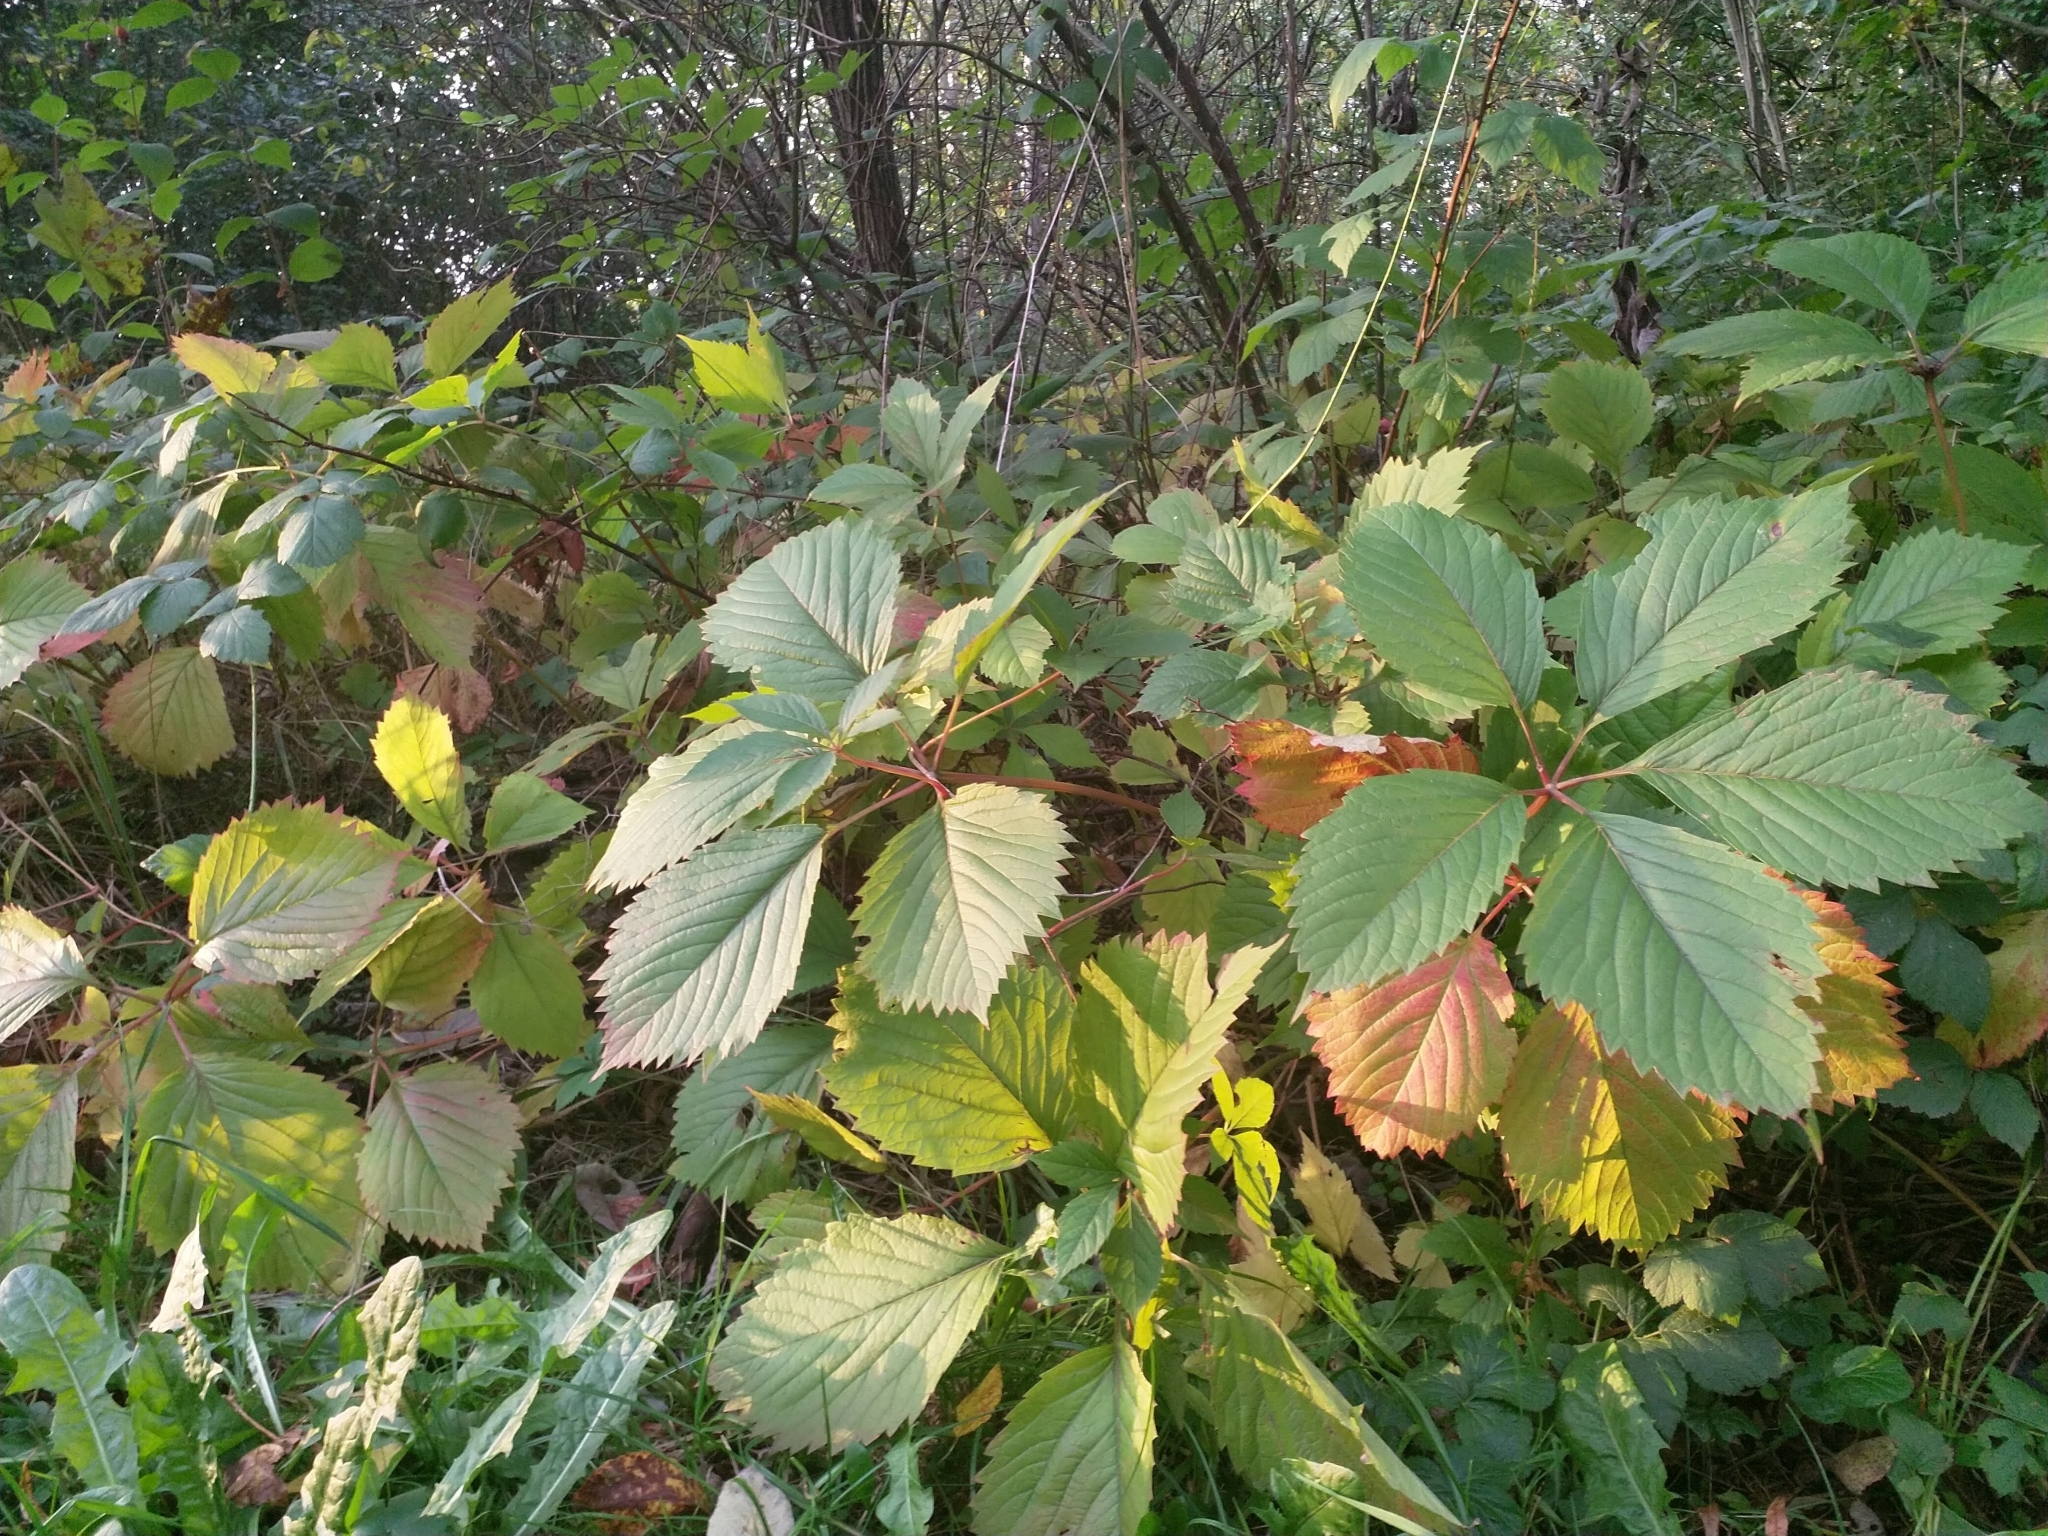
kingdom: Plantae
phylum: Tracheophyta
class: Magnoliopsida
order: Vitales
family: Vitaceae
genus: Parthenocissus
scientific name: Parthenocissus quinquefolia
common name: Virginia-creeper
